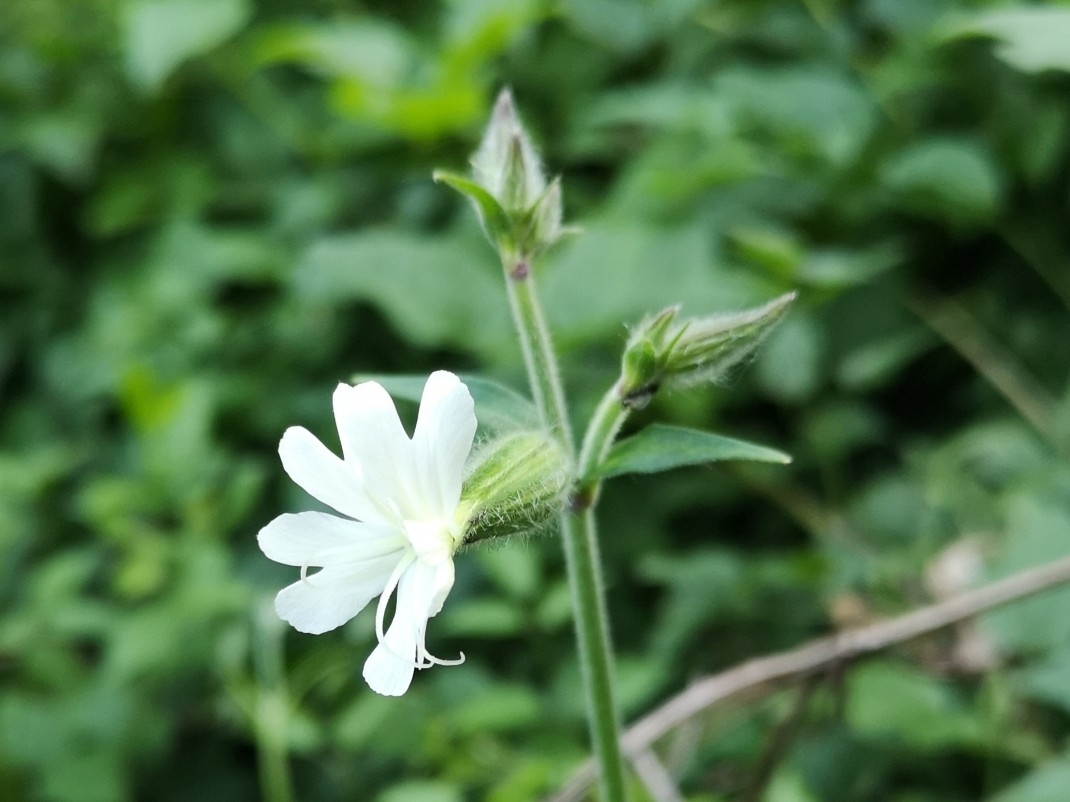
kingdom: Plantae
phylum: Tracheophyta
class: Magnoliopsida
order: Caryophyllales
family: Caryophyllaceae
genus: Silene
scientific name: Silene latifolia
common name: White campion
